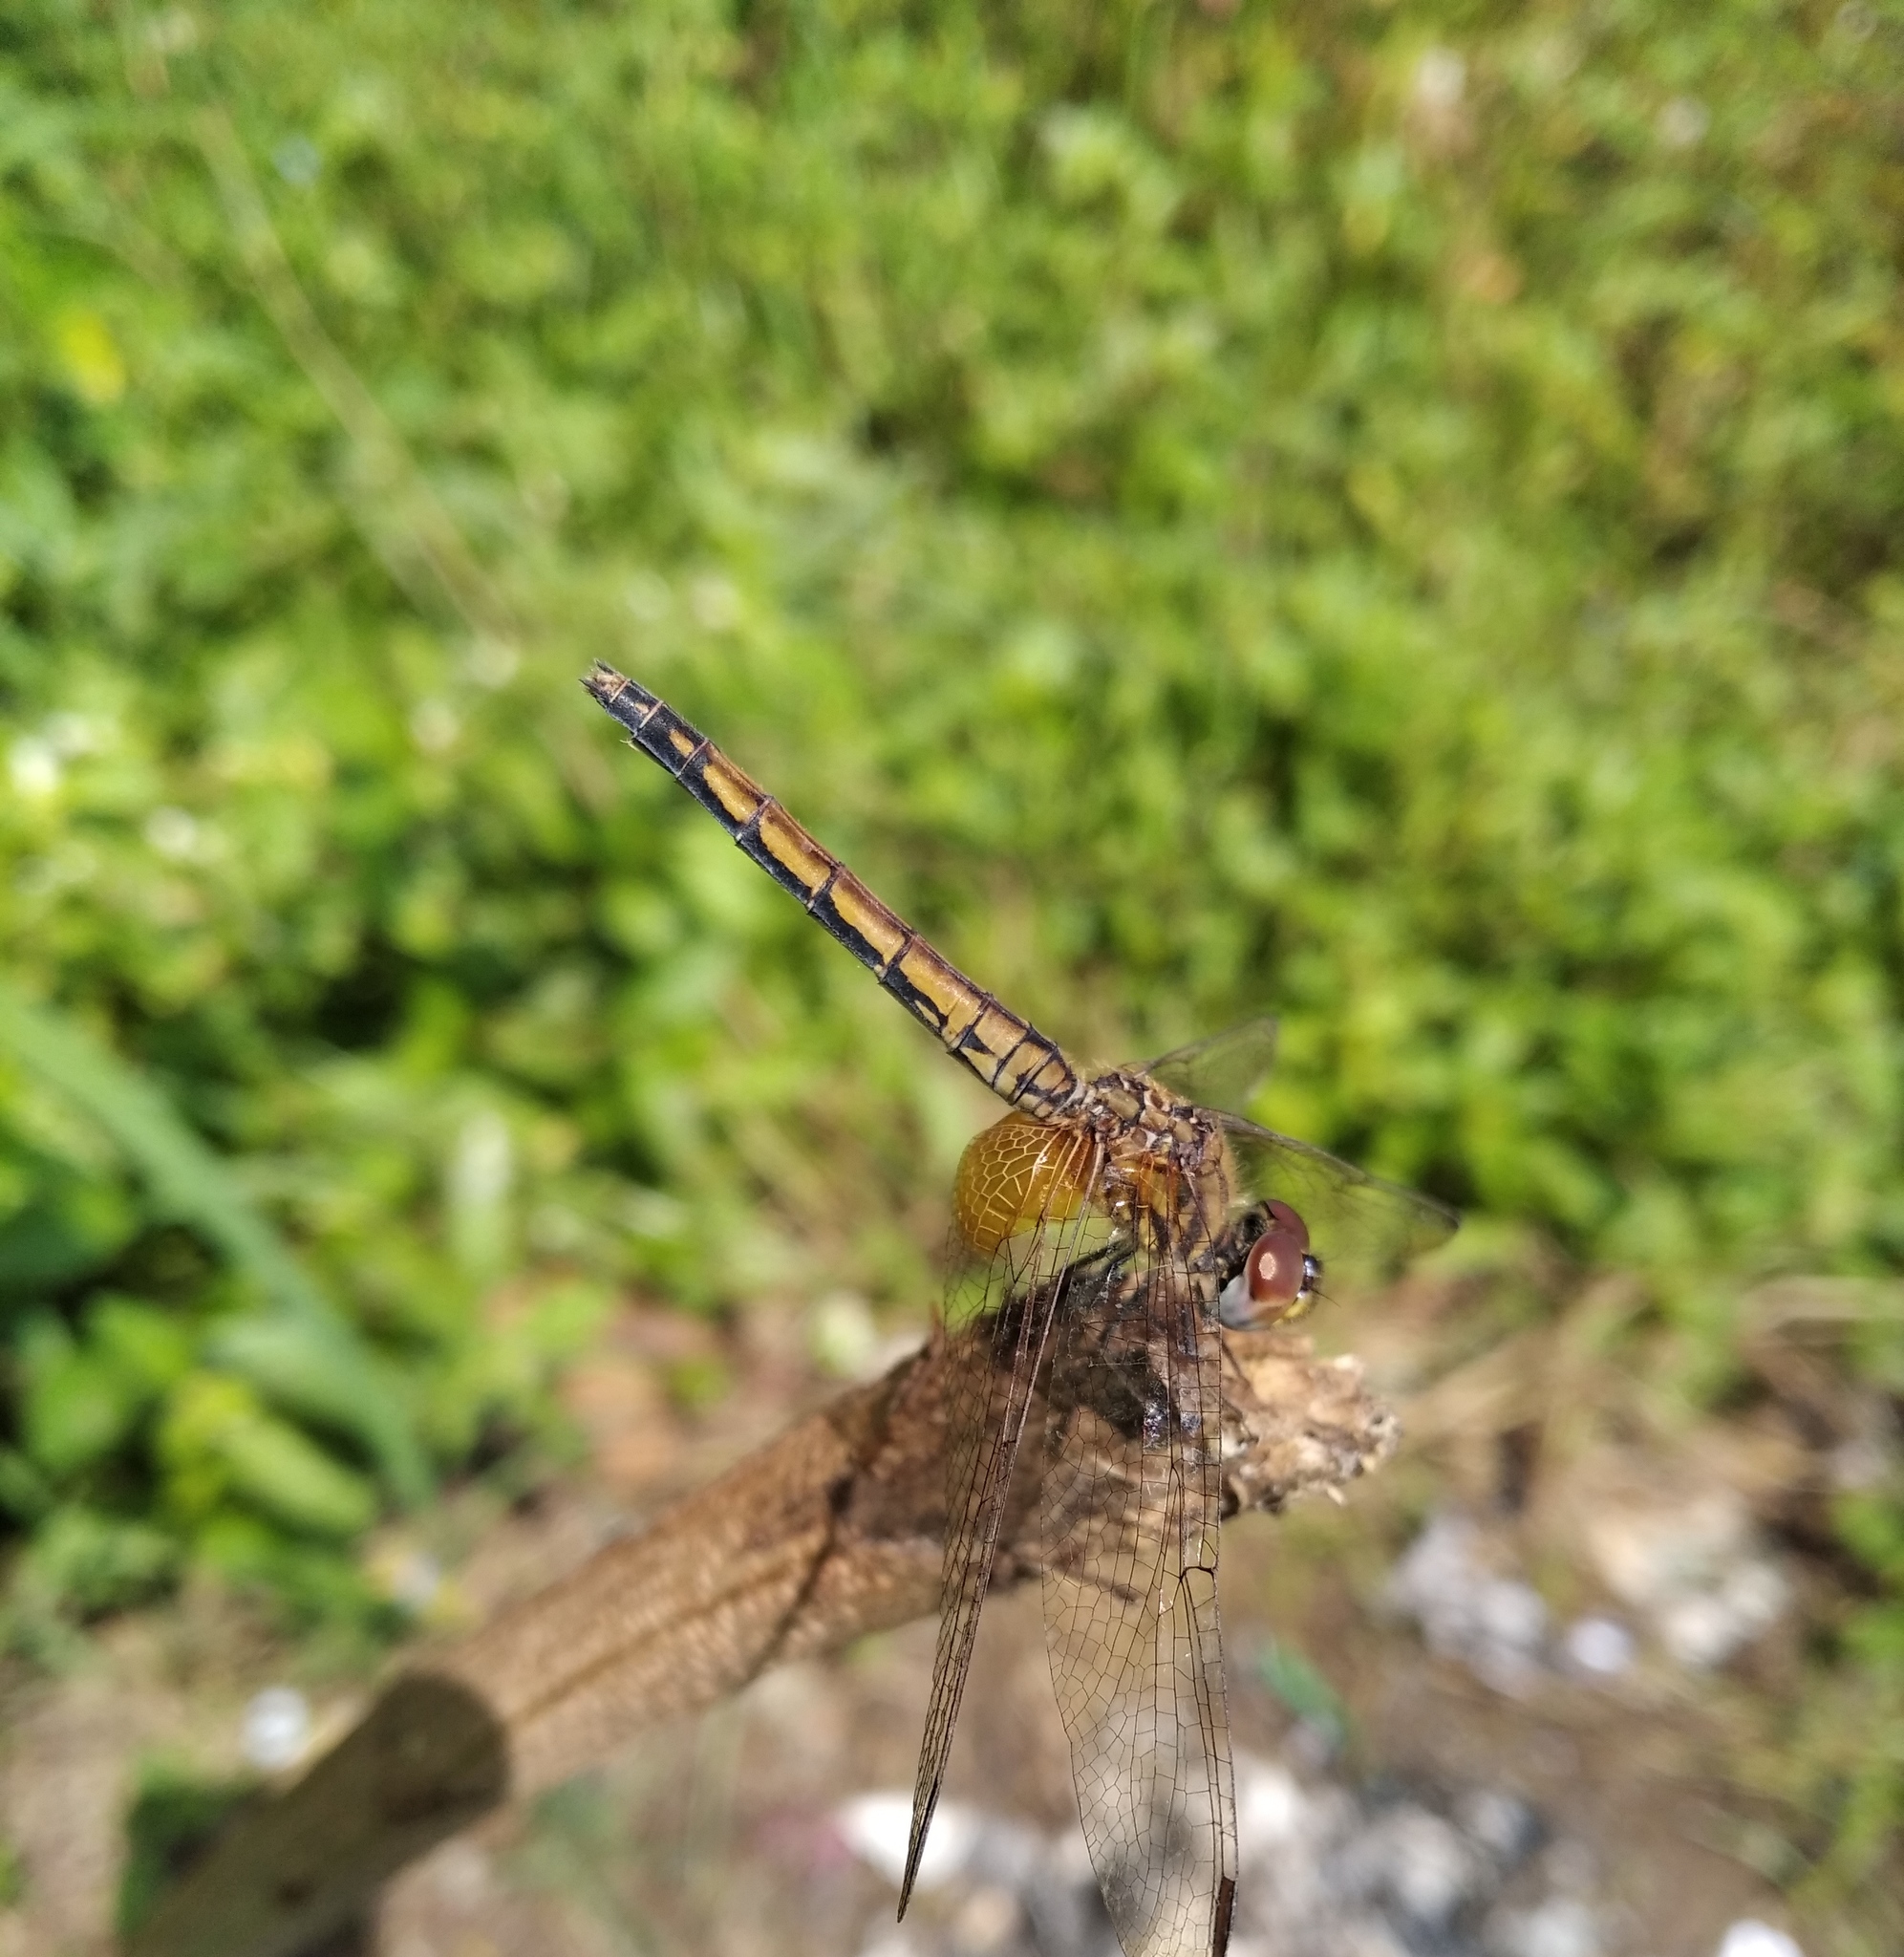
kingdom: Animalia
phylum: Arthropoda
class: Insecta
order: Odonata
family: Libellulidae
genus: Trithemis
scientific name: Trithemis aurora
